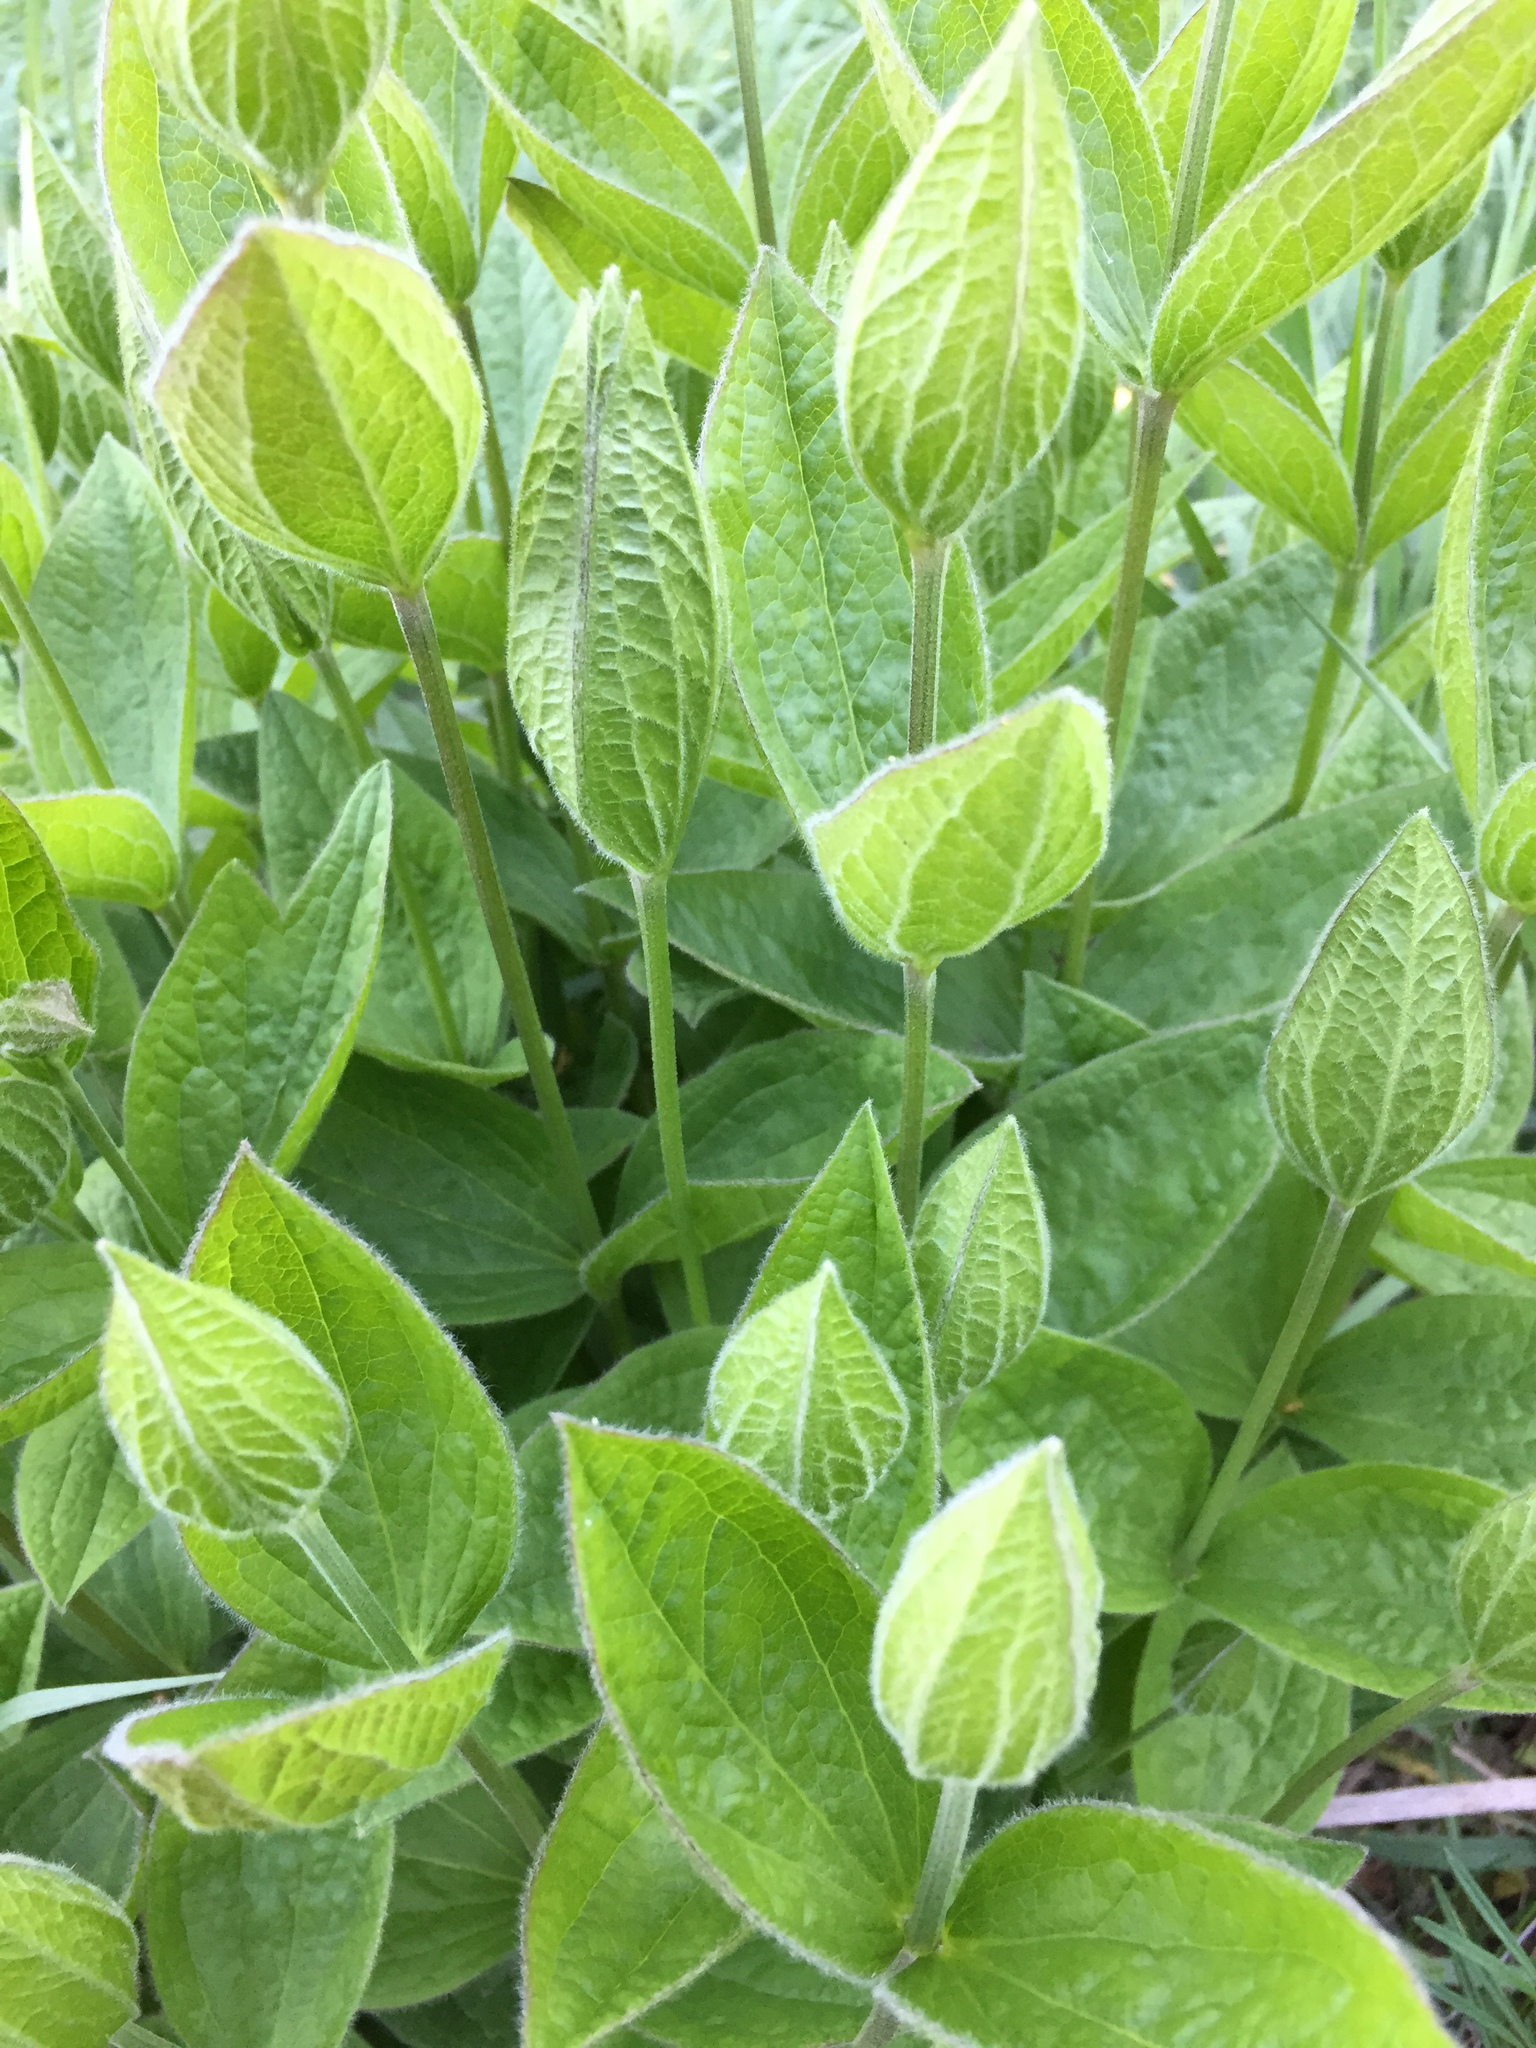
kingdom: Plantae
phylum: Tracheophyta
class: Magnoliopsida
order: Ranunculales
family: Ranunculaceae
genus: Clematis
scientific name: Clematis integrifolia
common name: Solitary clematis
